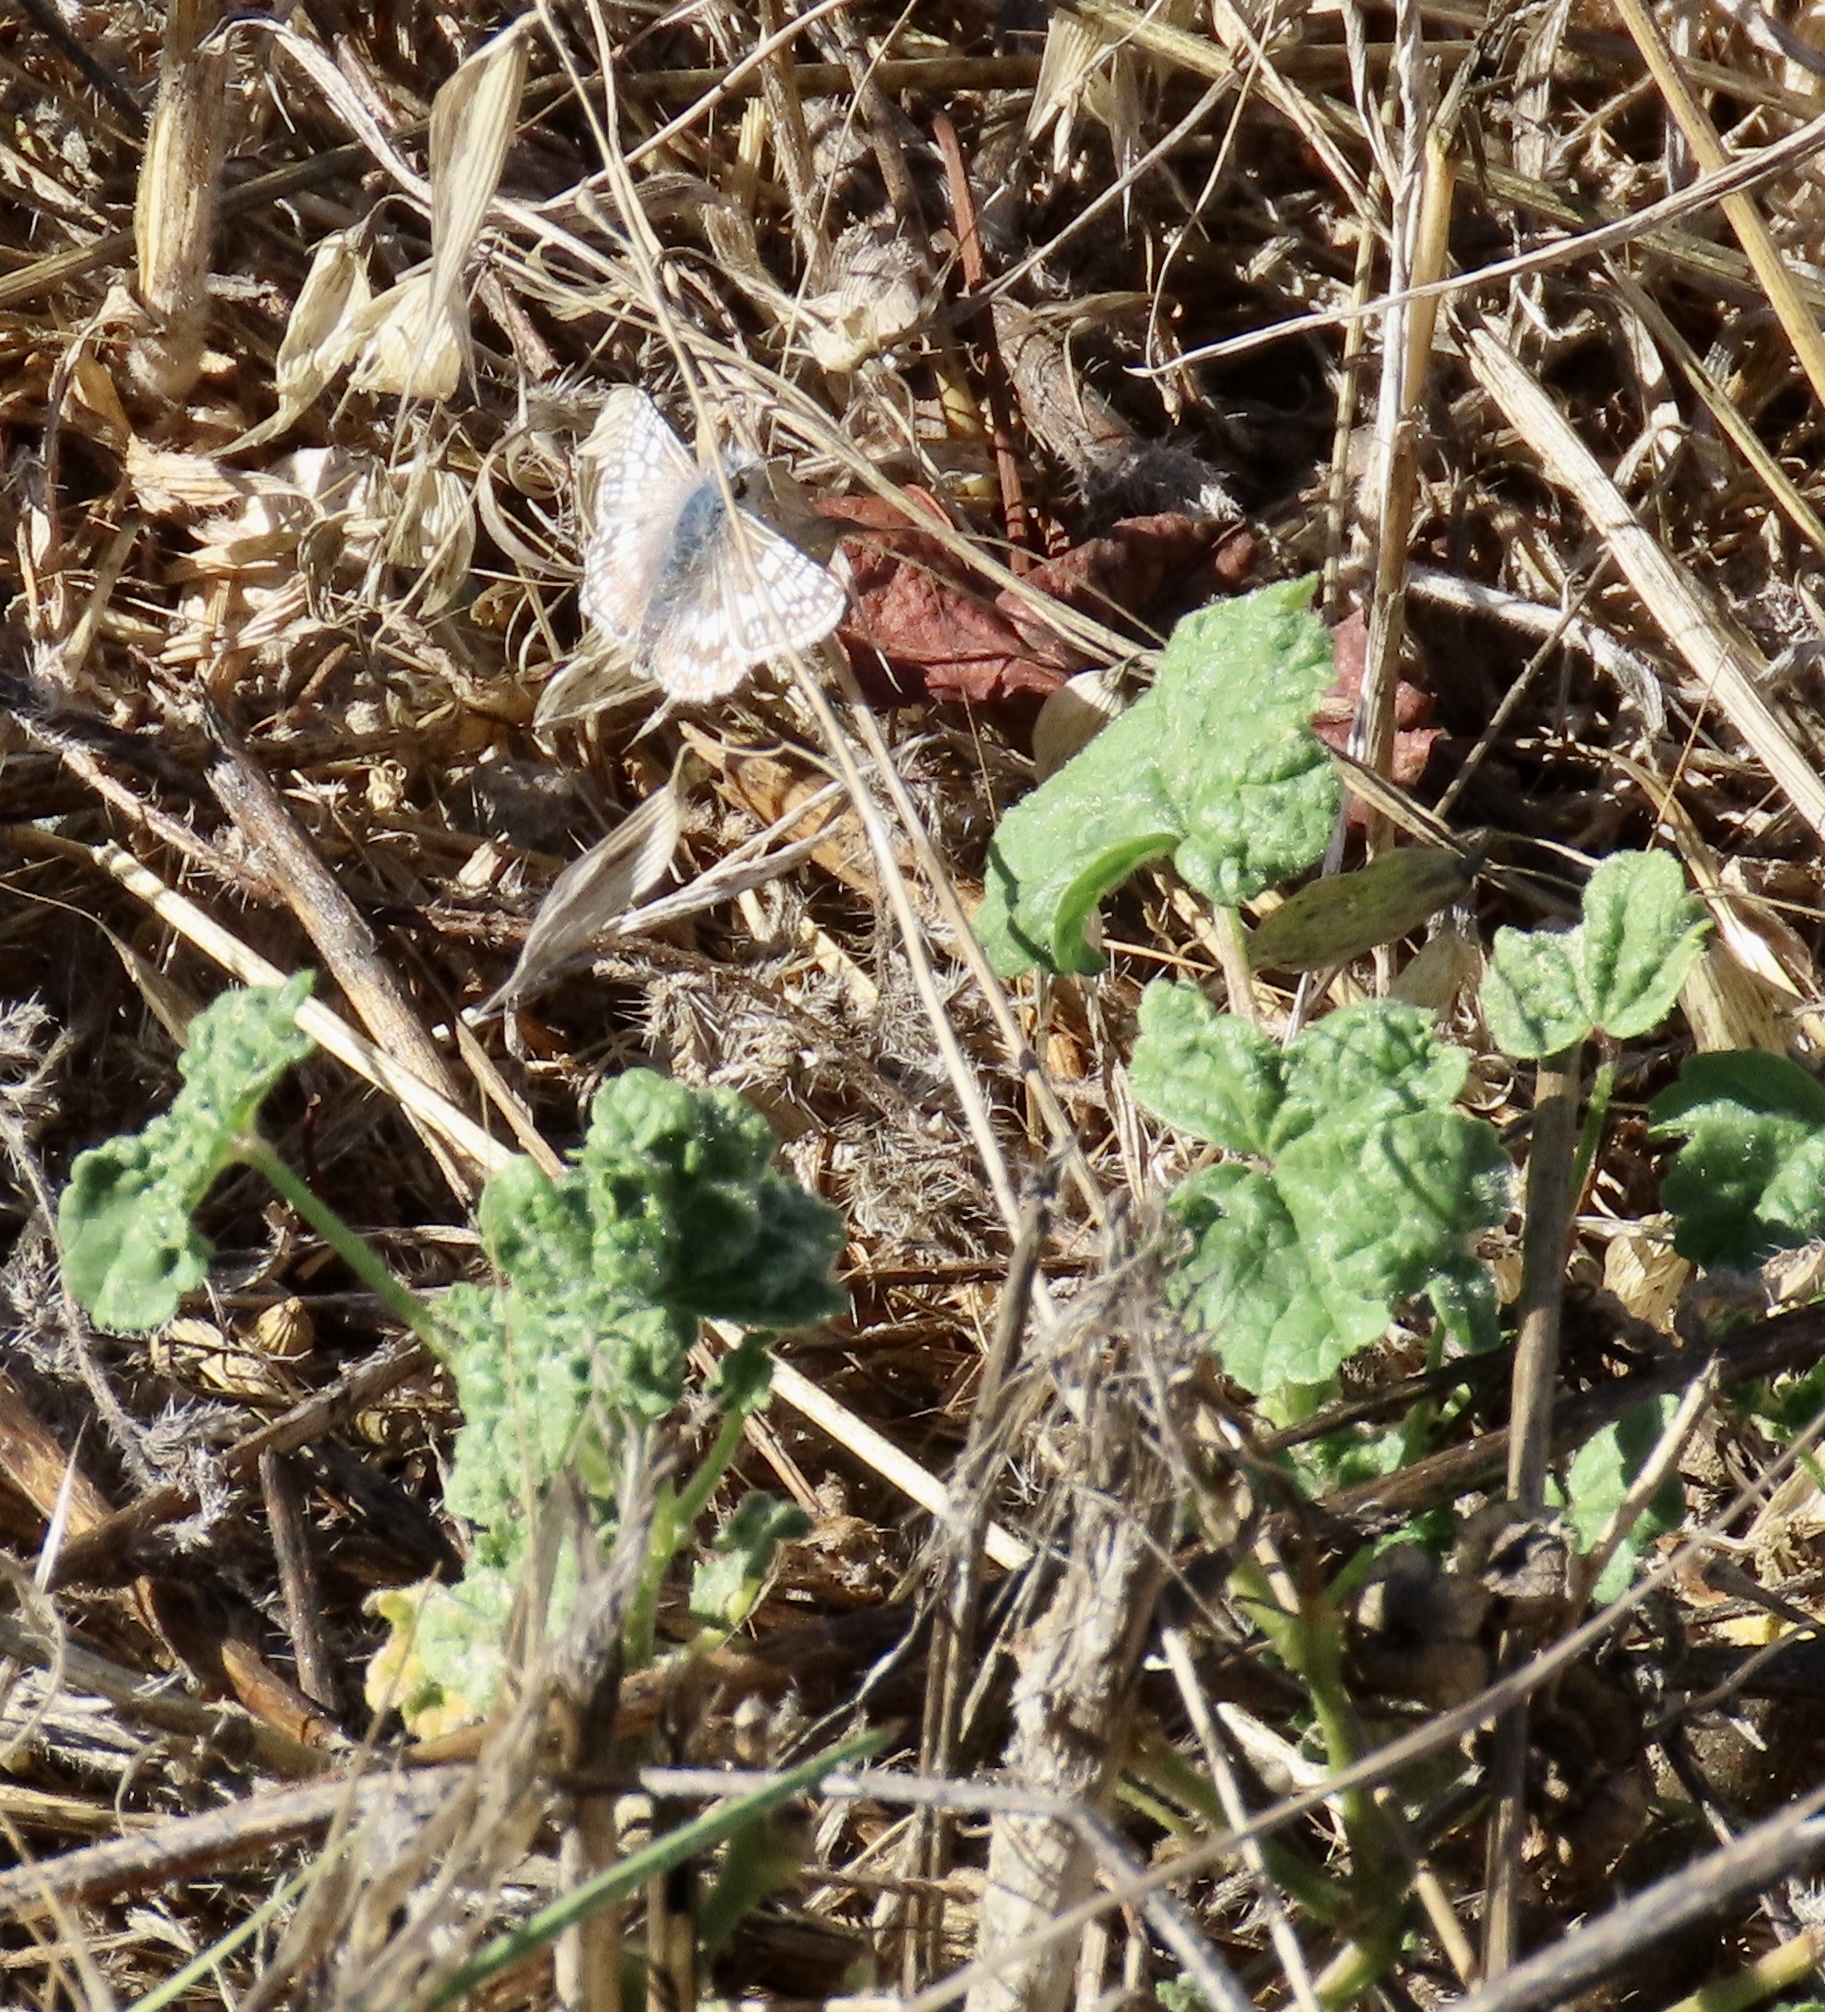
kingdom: Animalia
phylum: Arthropoda
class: Insecta
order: Lepidoptera
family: Hesperiidae
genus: Burnsius
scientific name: Burnsius communis
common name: Common checkered-skipper
